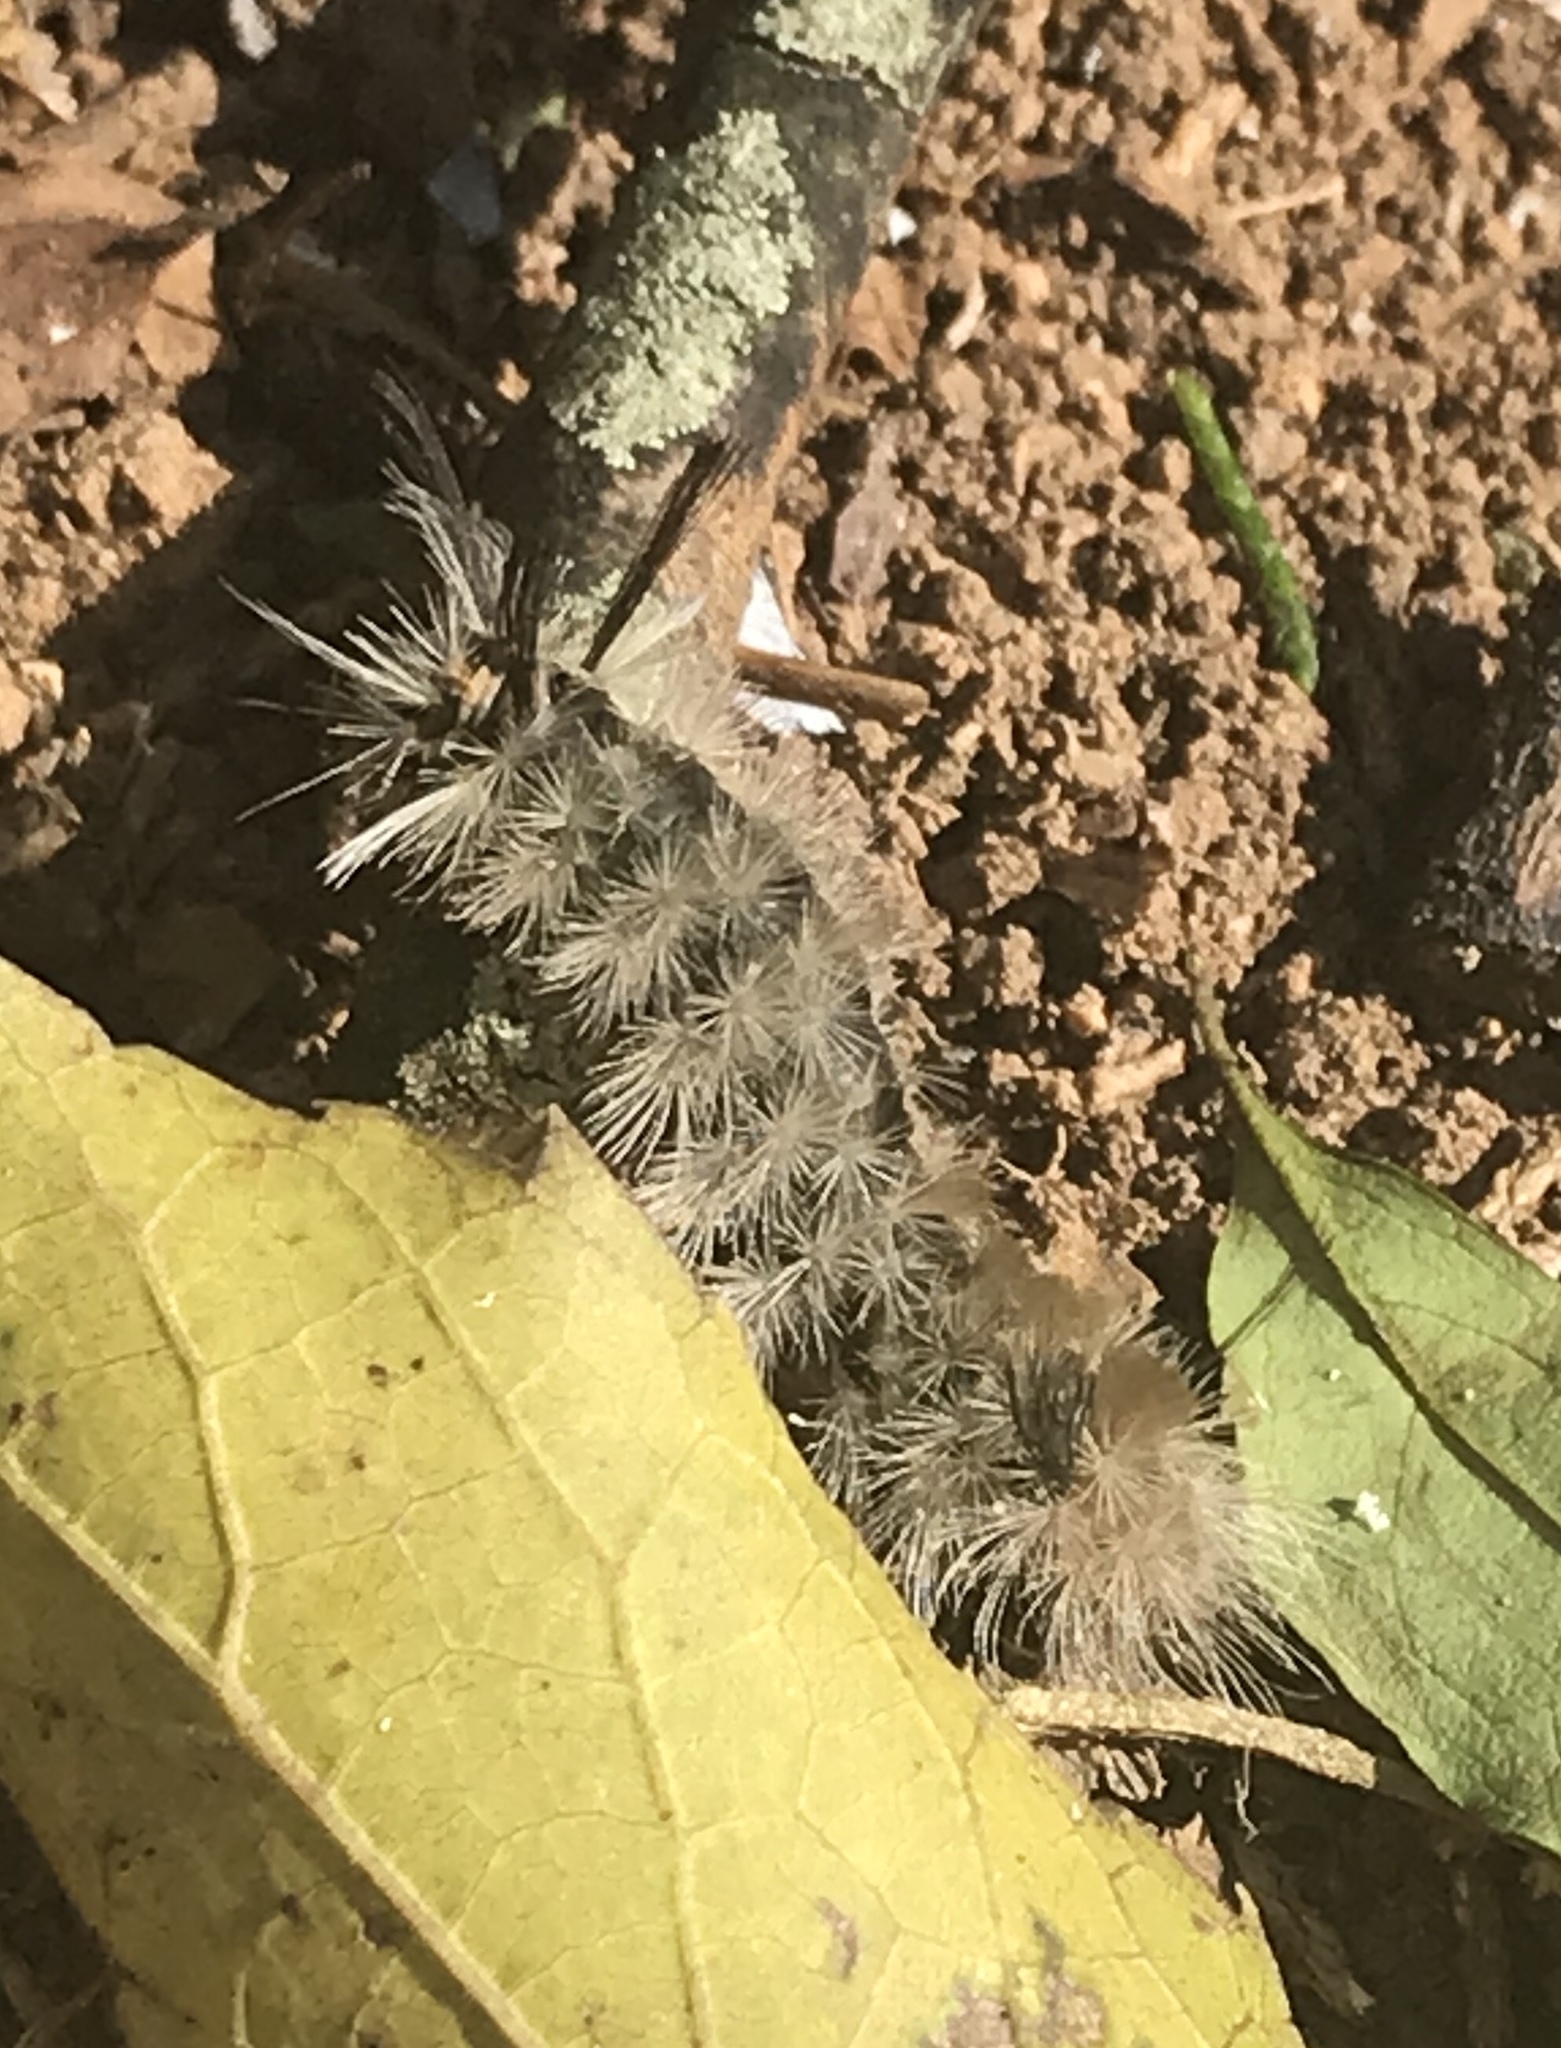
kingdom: Animalia
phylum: Arthropoda
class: Insecta
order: Lepidoptera
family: Erebidae
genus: Halysidota
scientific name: Halysidota tessellaris
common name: Banded tussock moth
